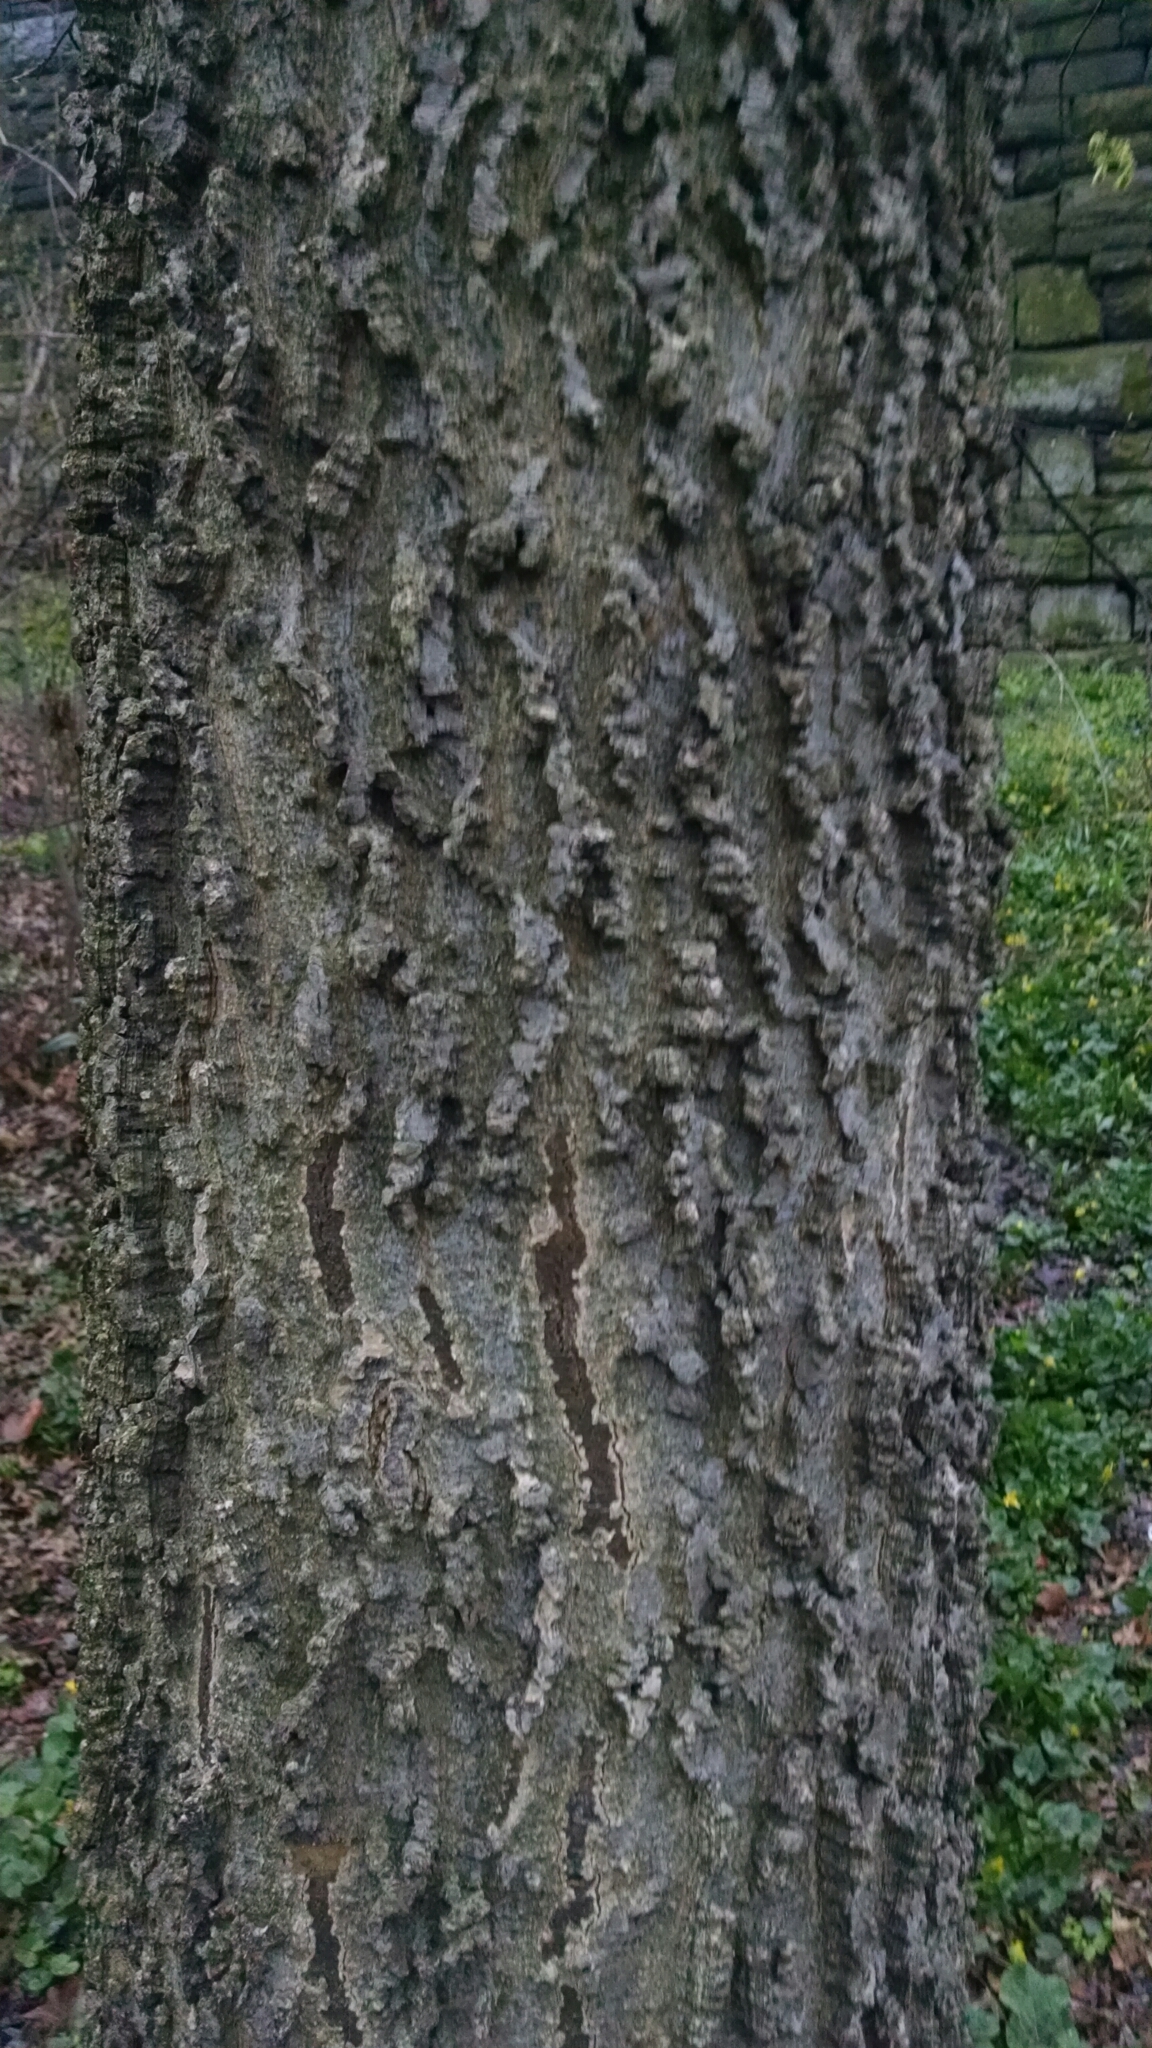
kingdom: Plantae
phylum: Tracheophyta
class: Magnoliopsida
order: Rosales
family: Cannabaceae
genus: Celtis
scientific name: Celtis occidentalis
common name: Common hackberry
